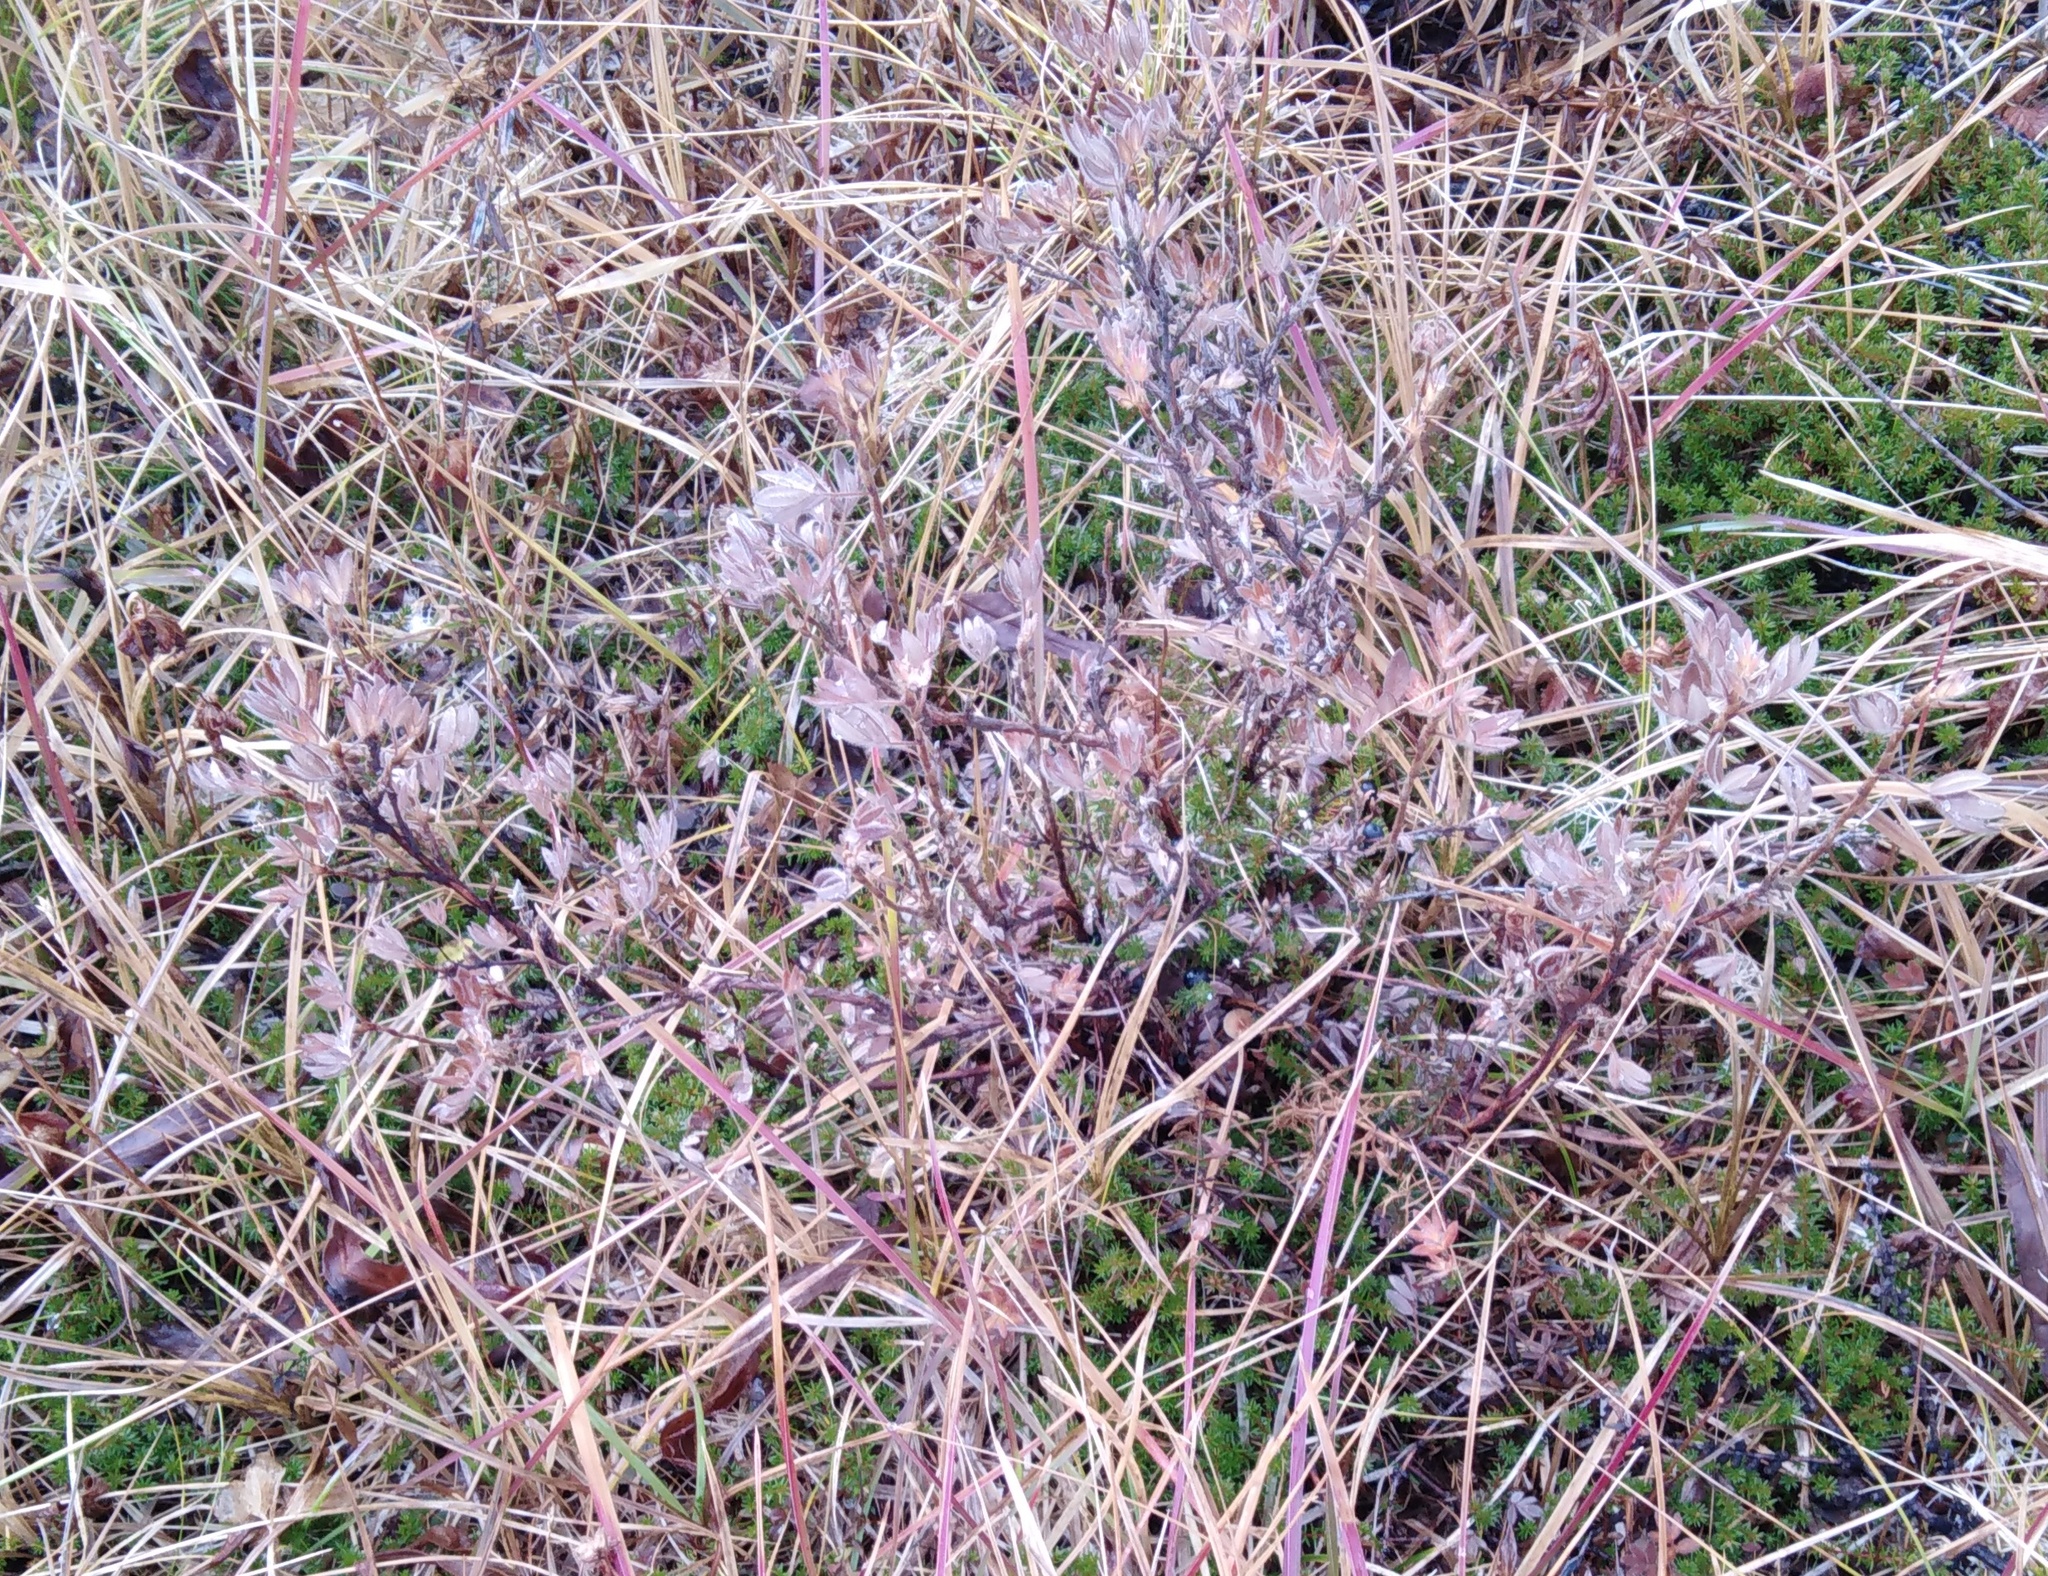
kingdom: Plantae
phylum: Tracheophyta
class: Magnoliopsida
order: Rosales
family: Rosaceae
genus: Dasiphora
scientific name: Dasiphora fruticosa
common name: Shrubby cinquefoil
